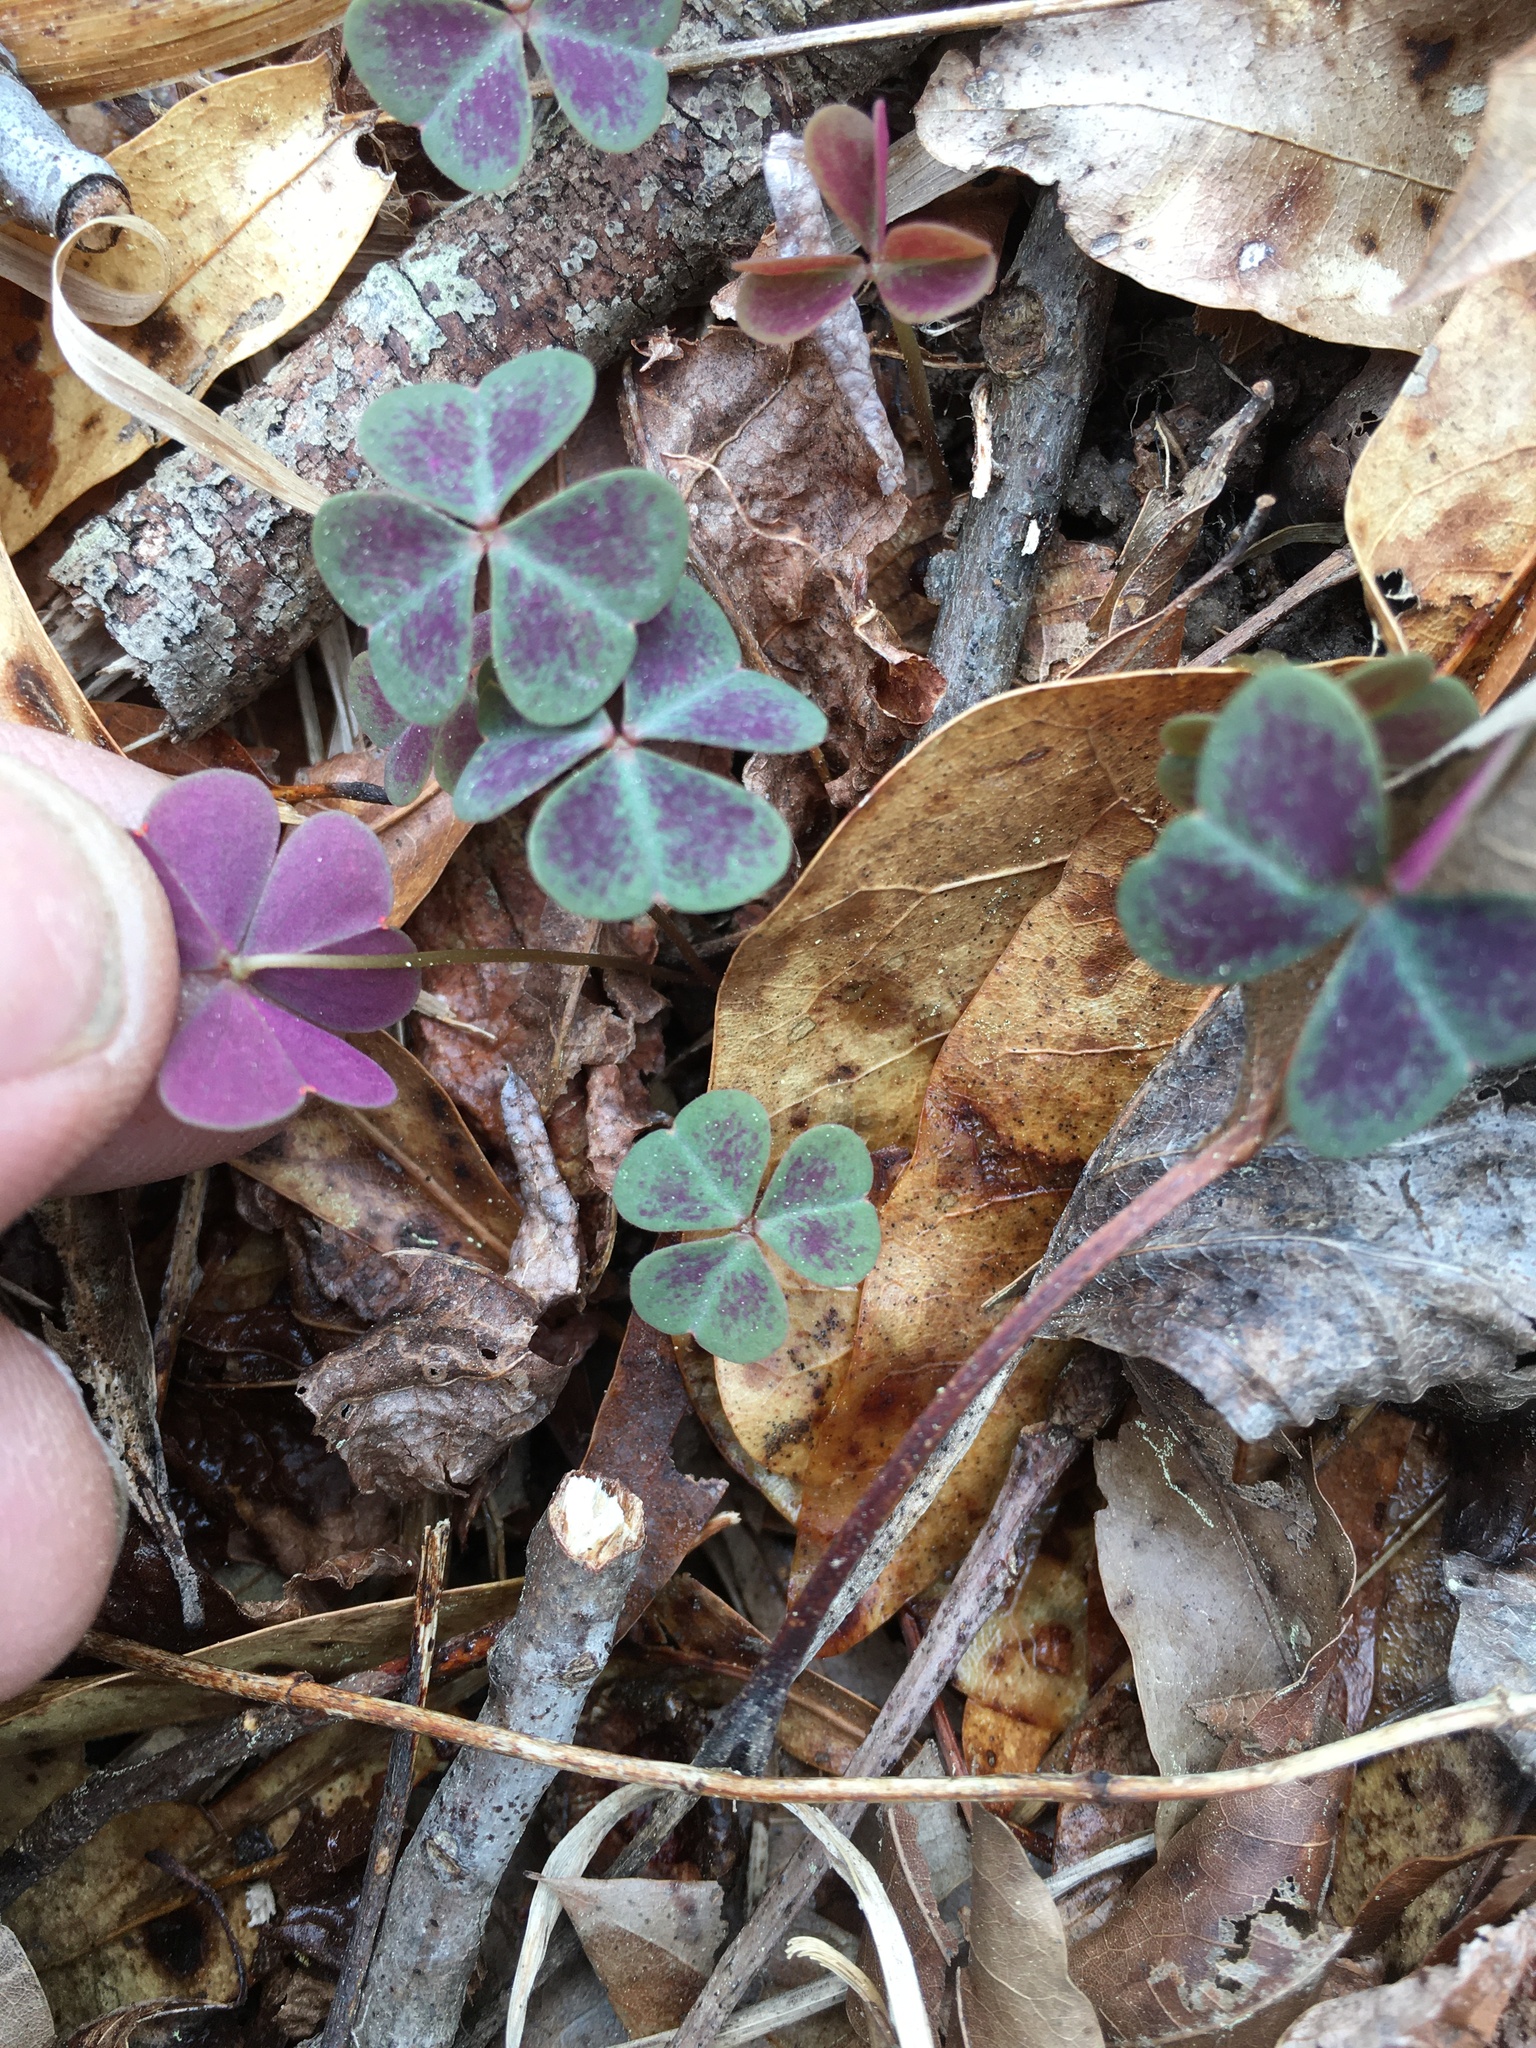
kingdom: Plantae
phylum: Tracheophyta
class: Magnoliopsida
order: Oxalidales
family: Oxalidaceae
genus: Oxalis
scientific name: Oxalis violacea
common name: Violet wood-sorrel
